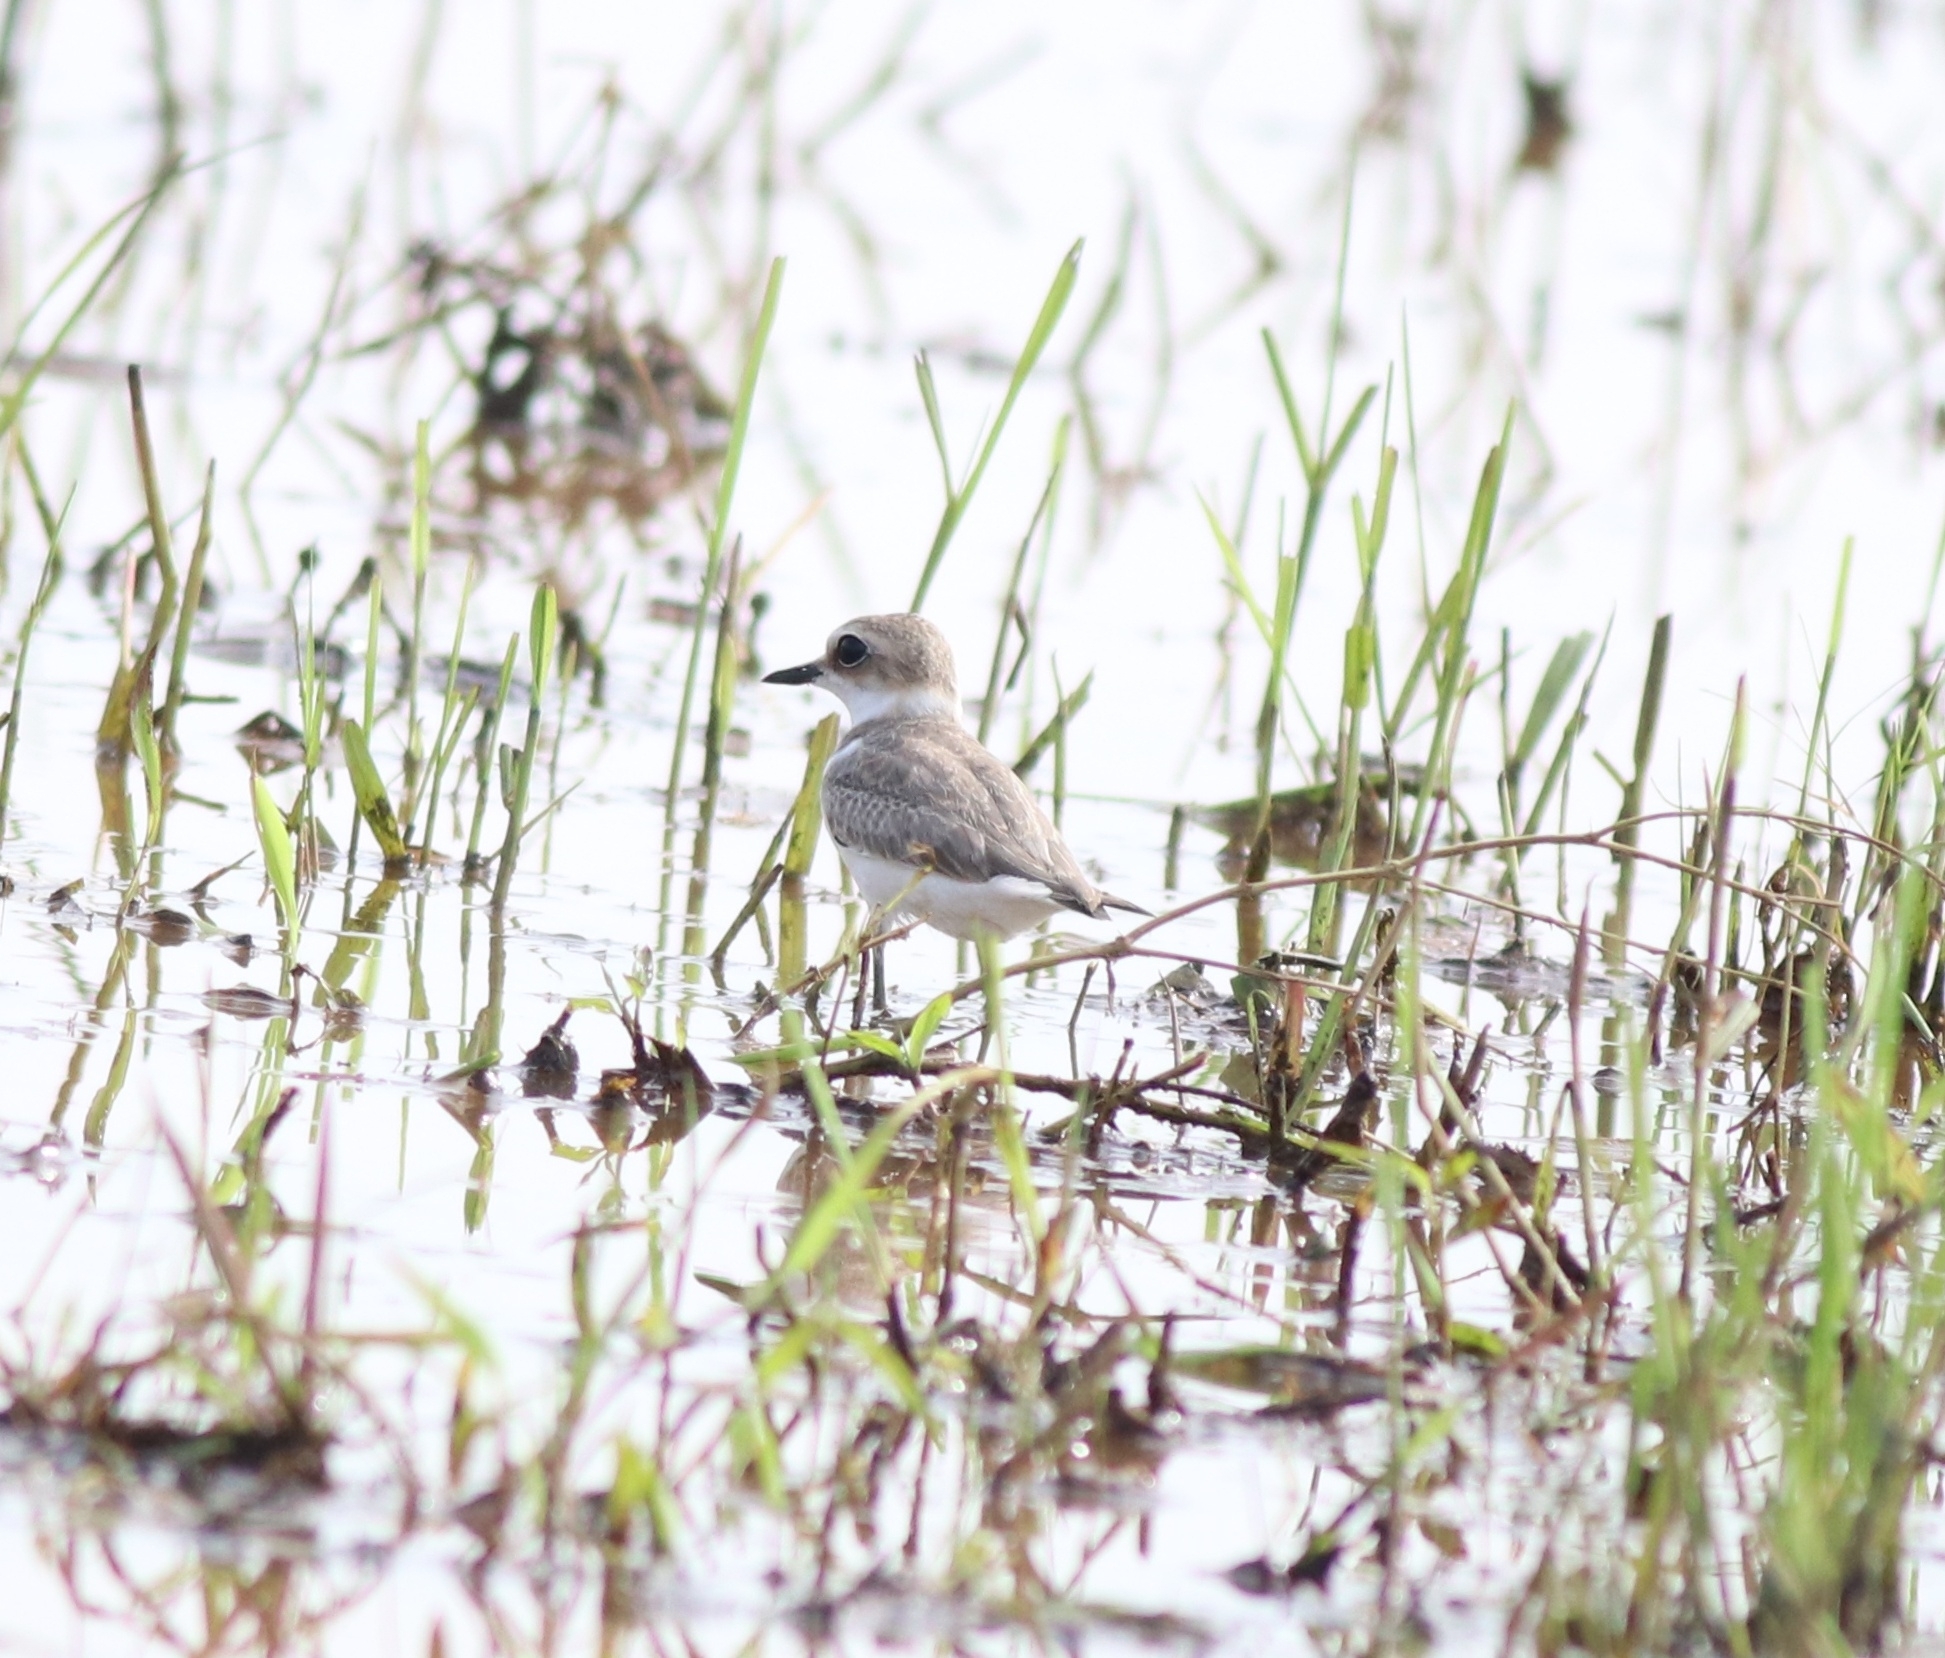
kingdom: Animalia
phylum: Chordata
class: Aves
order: Charadriiformes
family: Charadriidae
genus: Charadrius
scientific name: Charadrius alexandrinus
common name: Kentish plover
